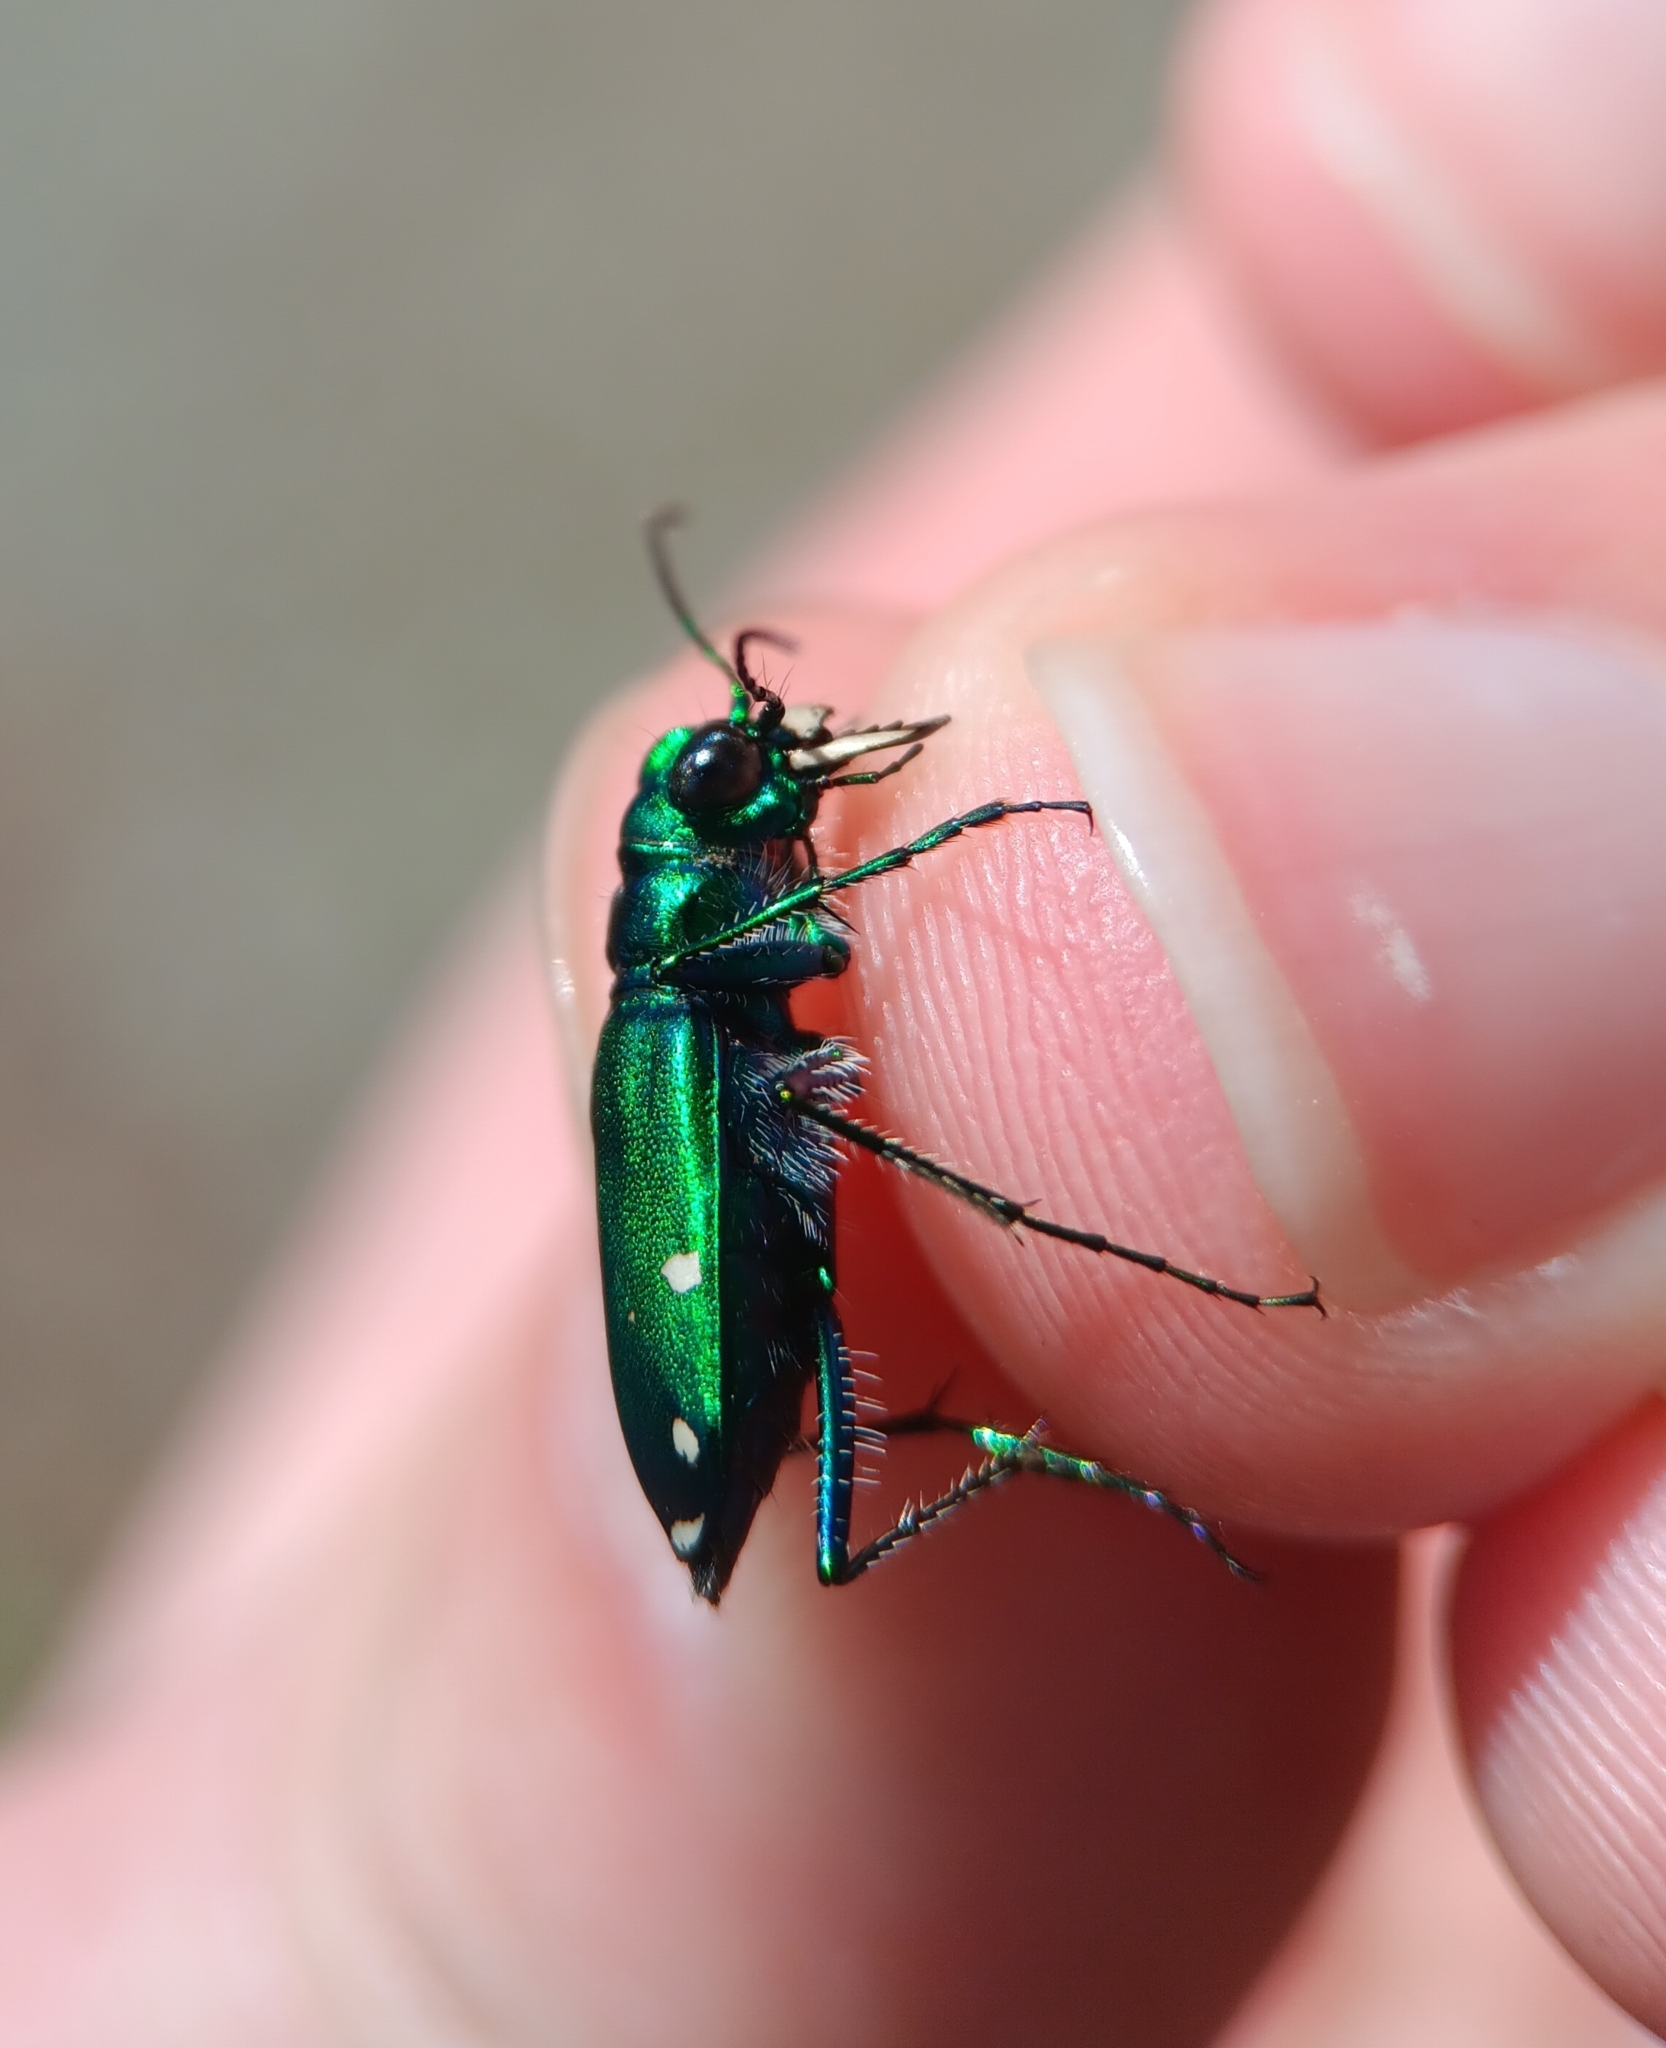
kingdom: Animalia
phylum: Arthropoda
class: Insecta
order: Coleoptera
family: Carabidae
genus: Cicindela
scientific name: Cicindela sexguttata
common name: Six-spotted tiger beetle
